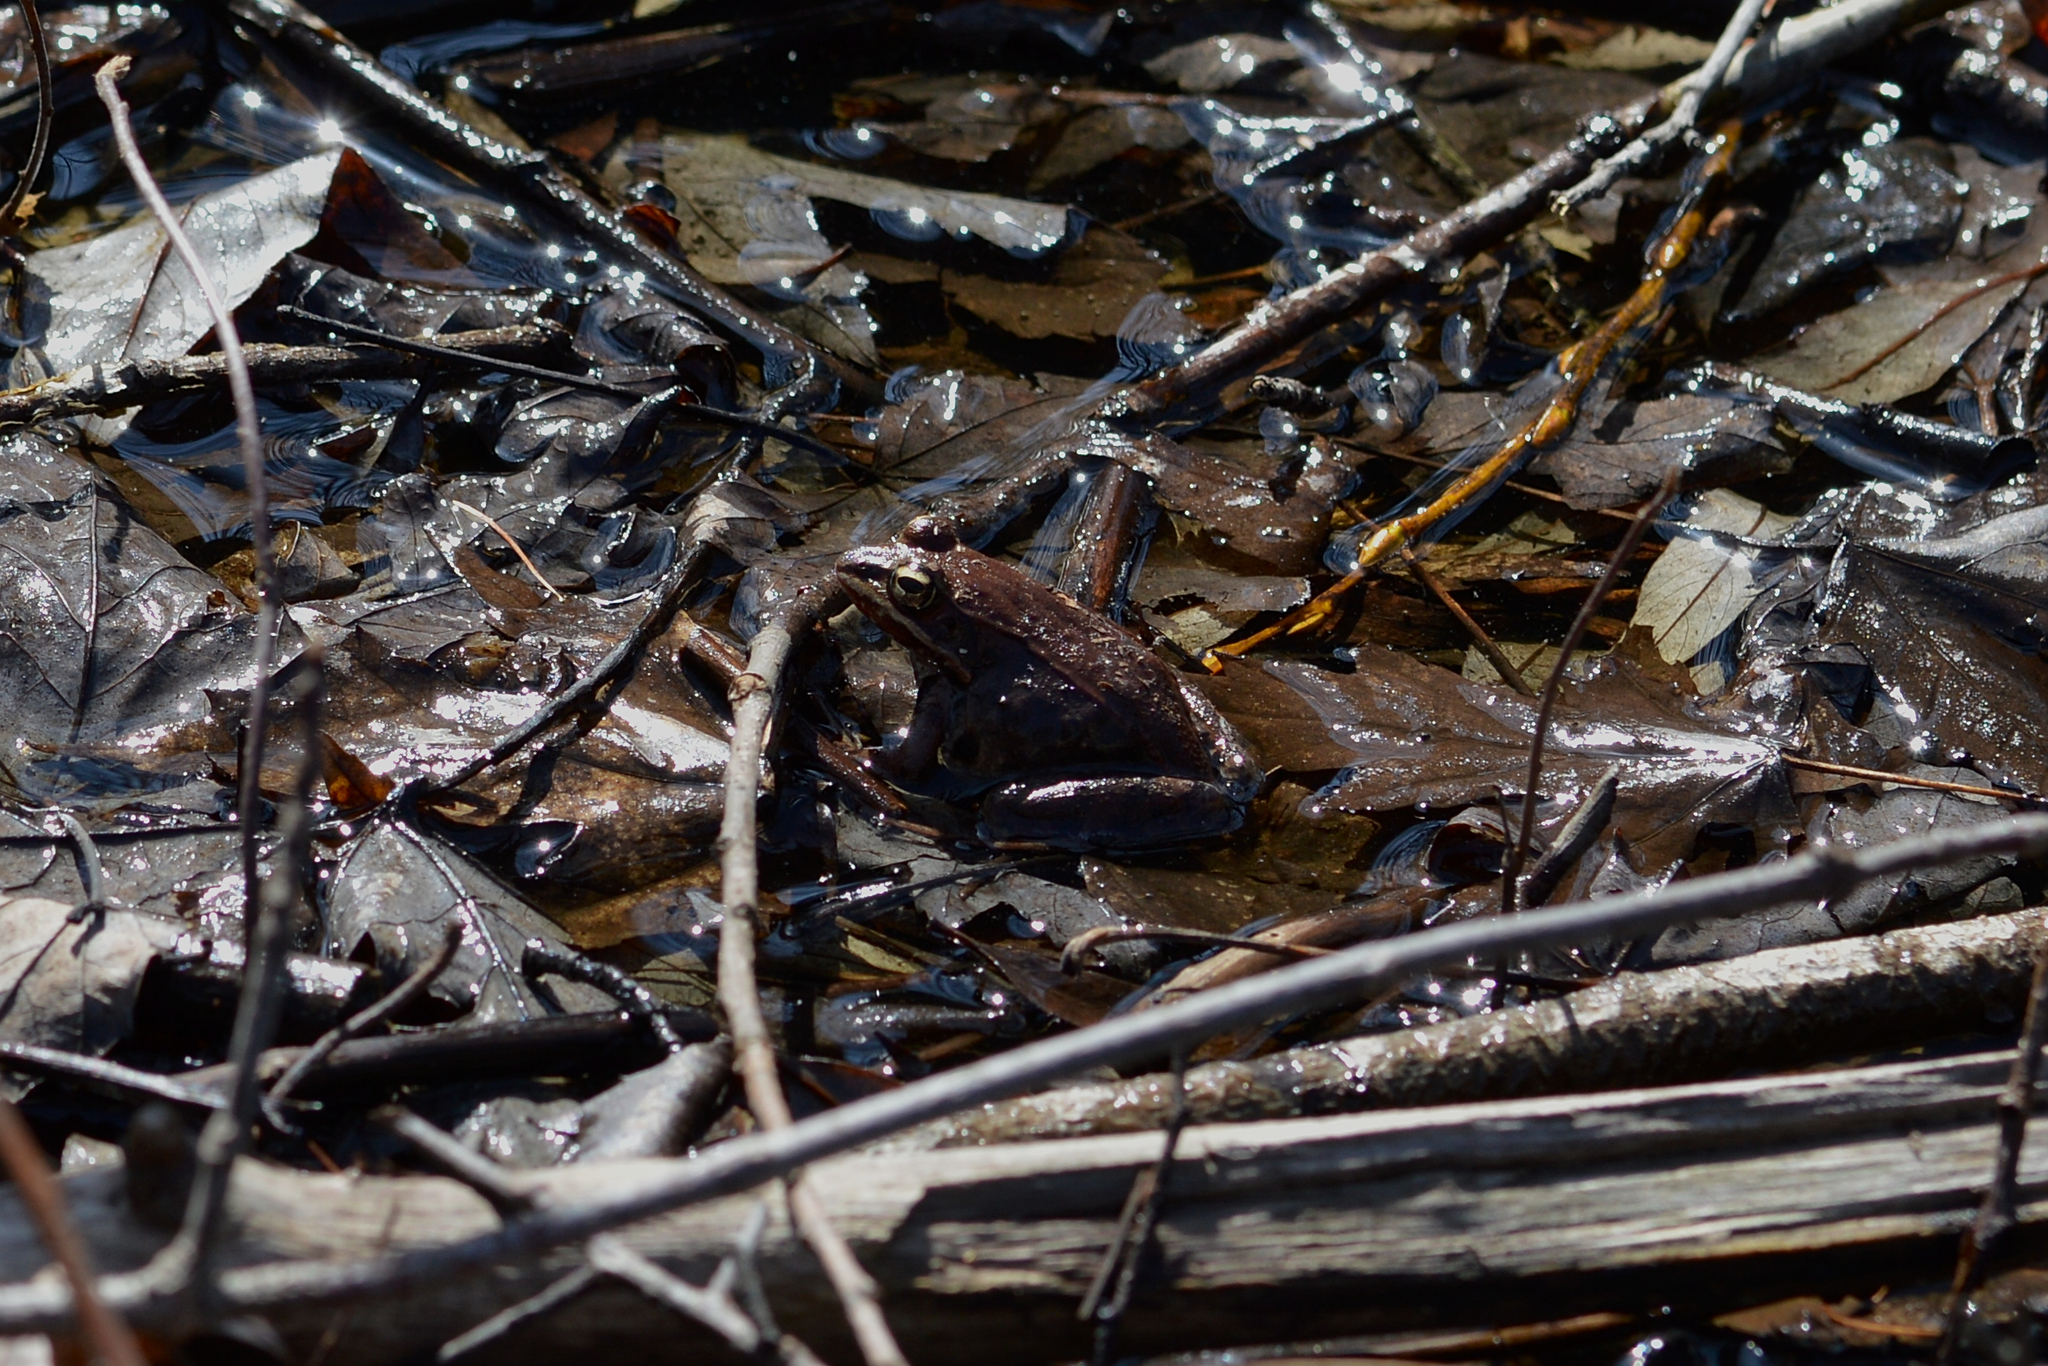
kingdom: Animalia
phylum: Chordata
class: Amphibia
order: Anura
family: Ranidae
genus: Lithobates
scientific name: Lithobates sylvaticus
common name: Wood frog
